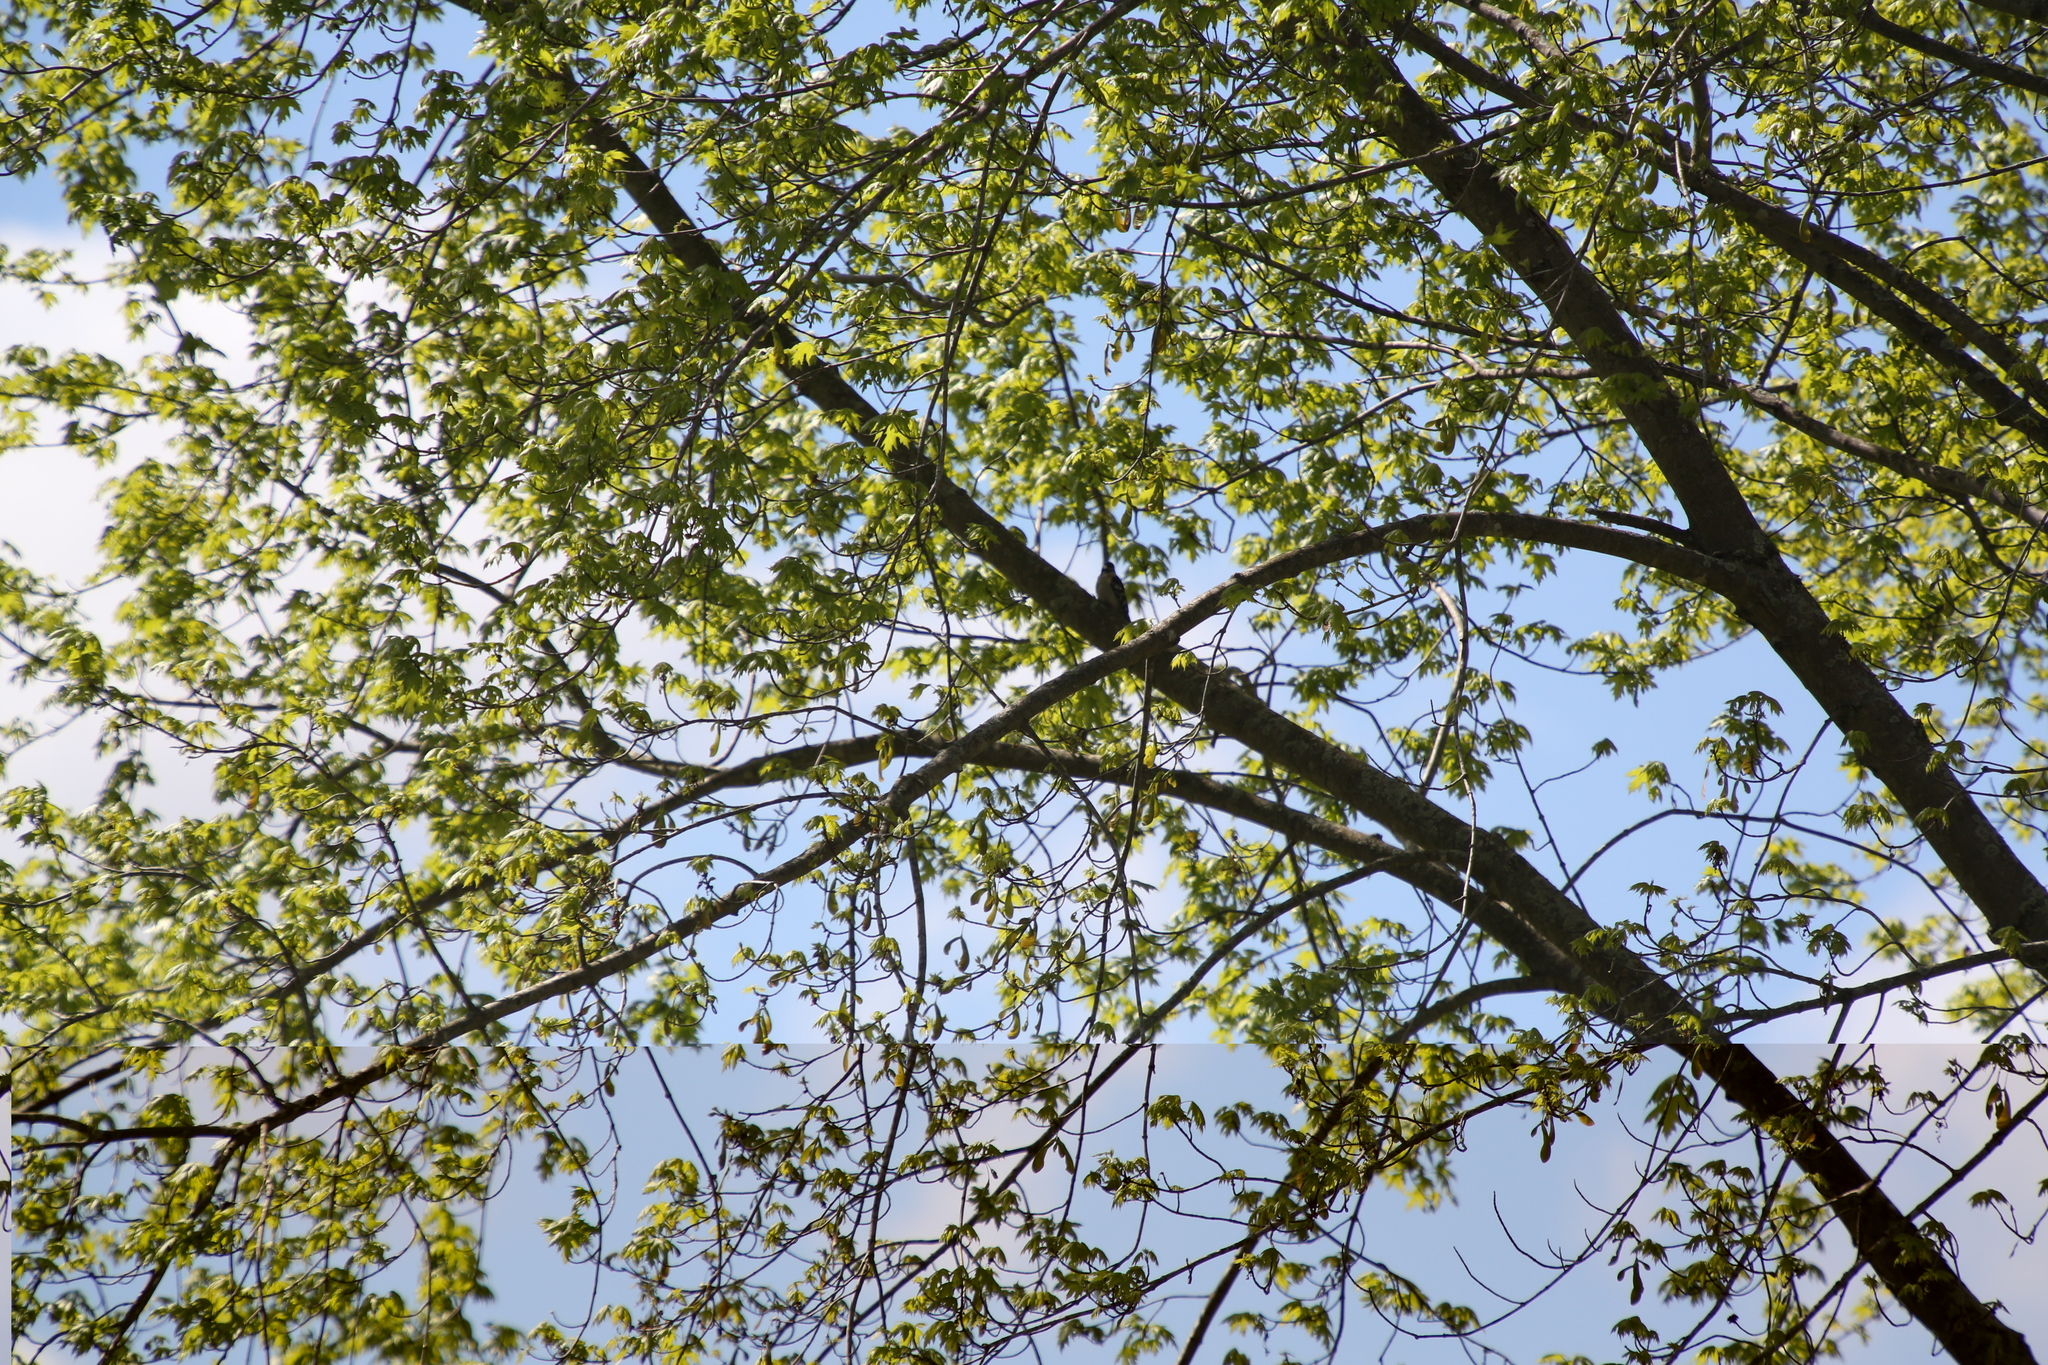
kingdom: Animalia
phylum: Chordata
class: Aves
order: Piciformes
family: Picidae
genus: Dryobates
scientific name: Dryobates pubescens
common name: Downy woodpecker
